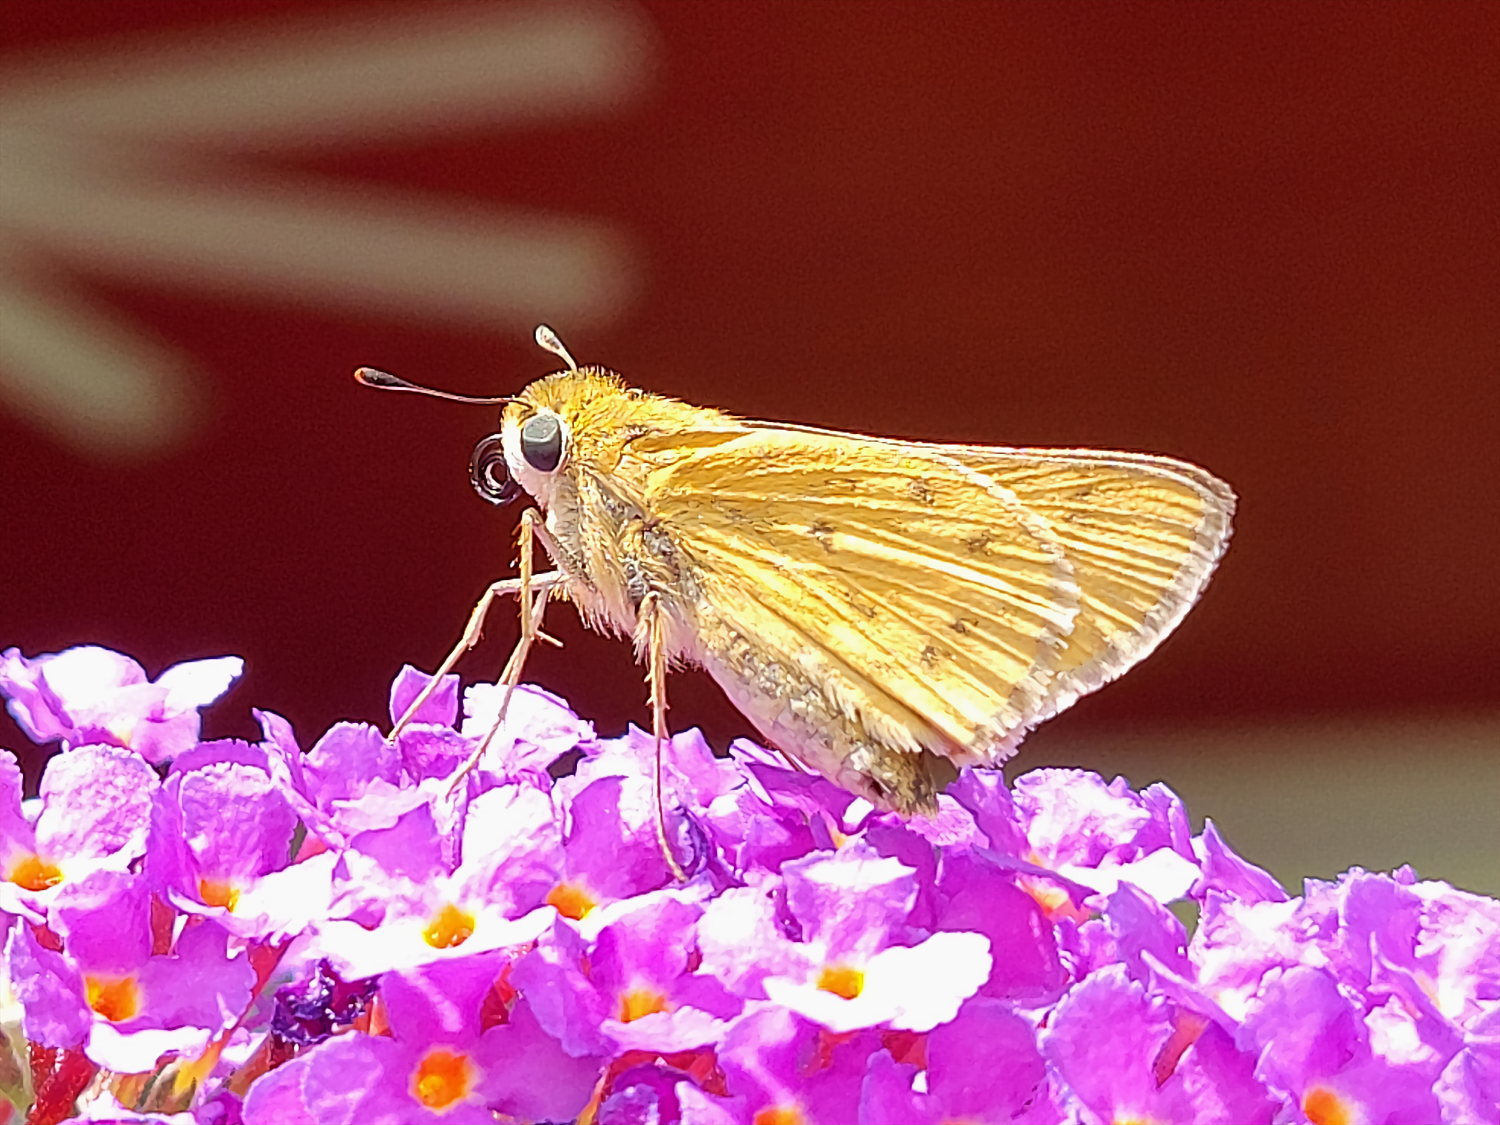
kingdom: Animalia
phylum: Arthropoda
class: Insecta
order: Lepidoptera
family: Hesperiidae
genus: Hylephila
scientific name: Hylephila phyleus
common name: Fiery skipper
